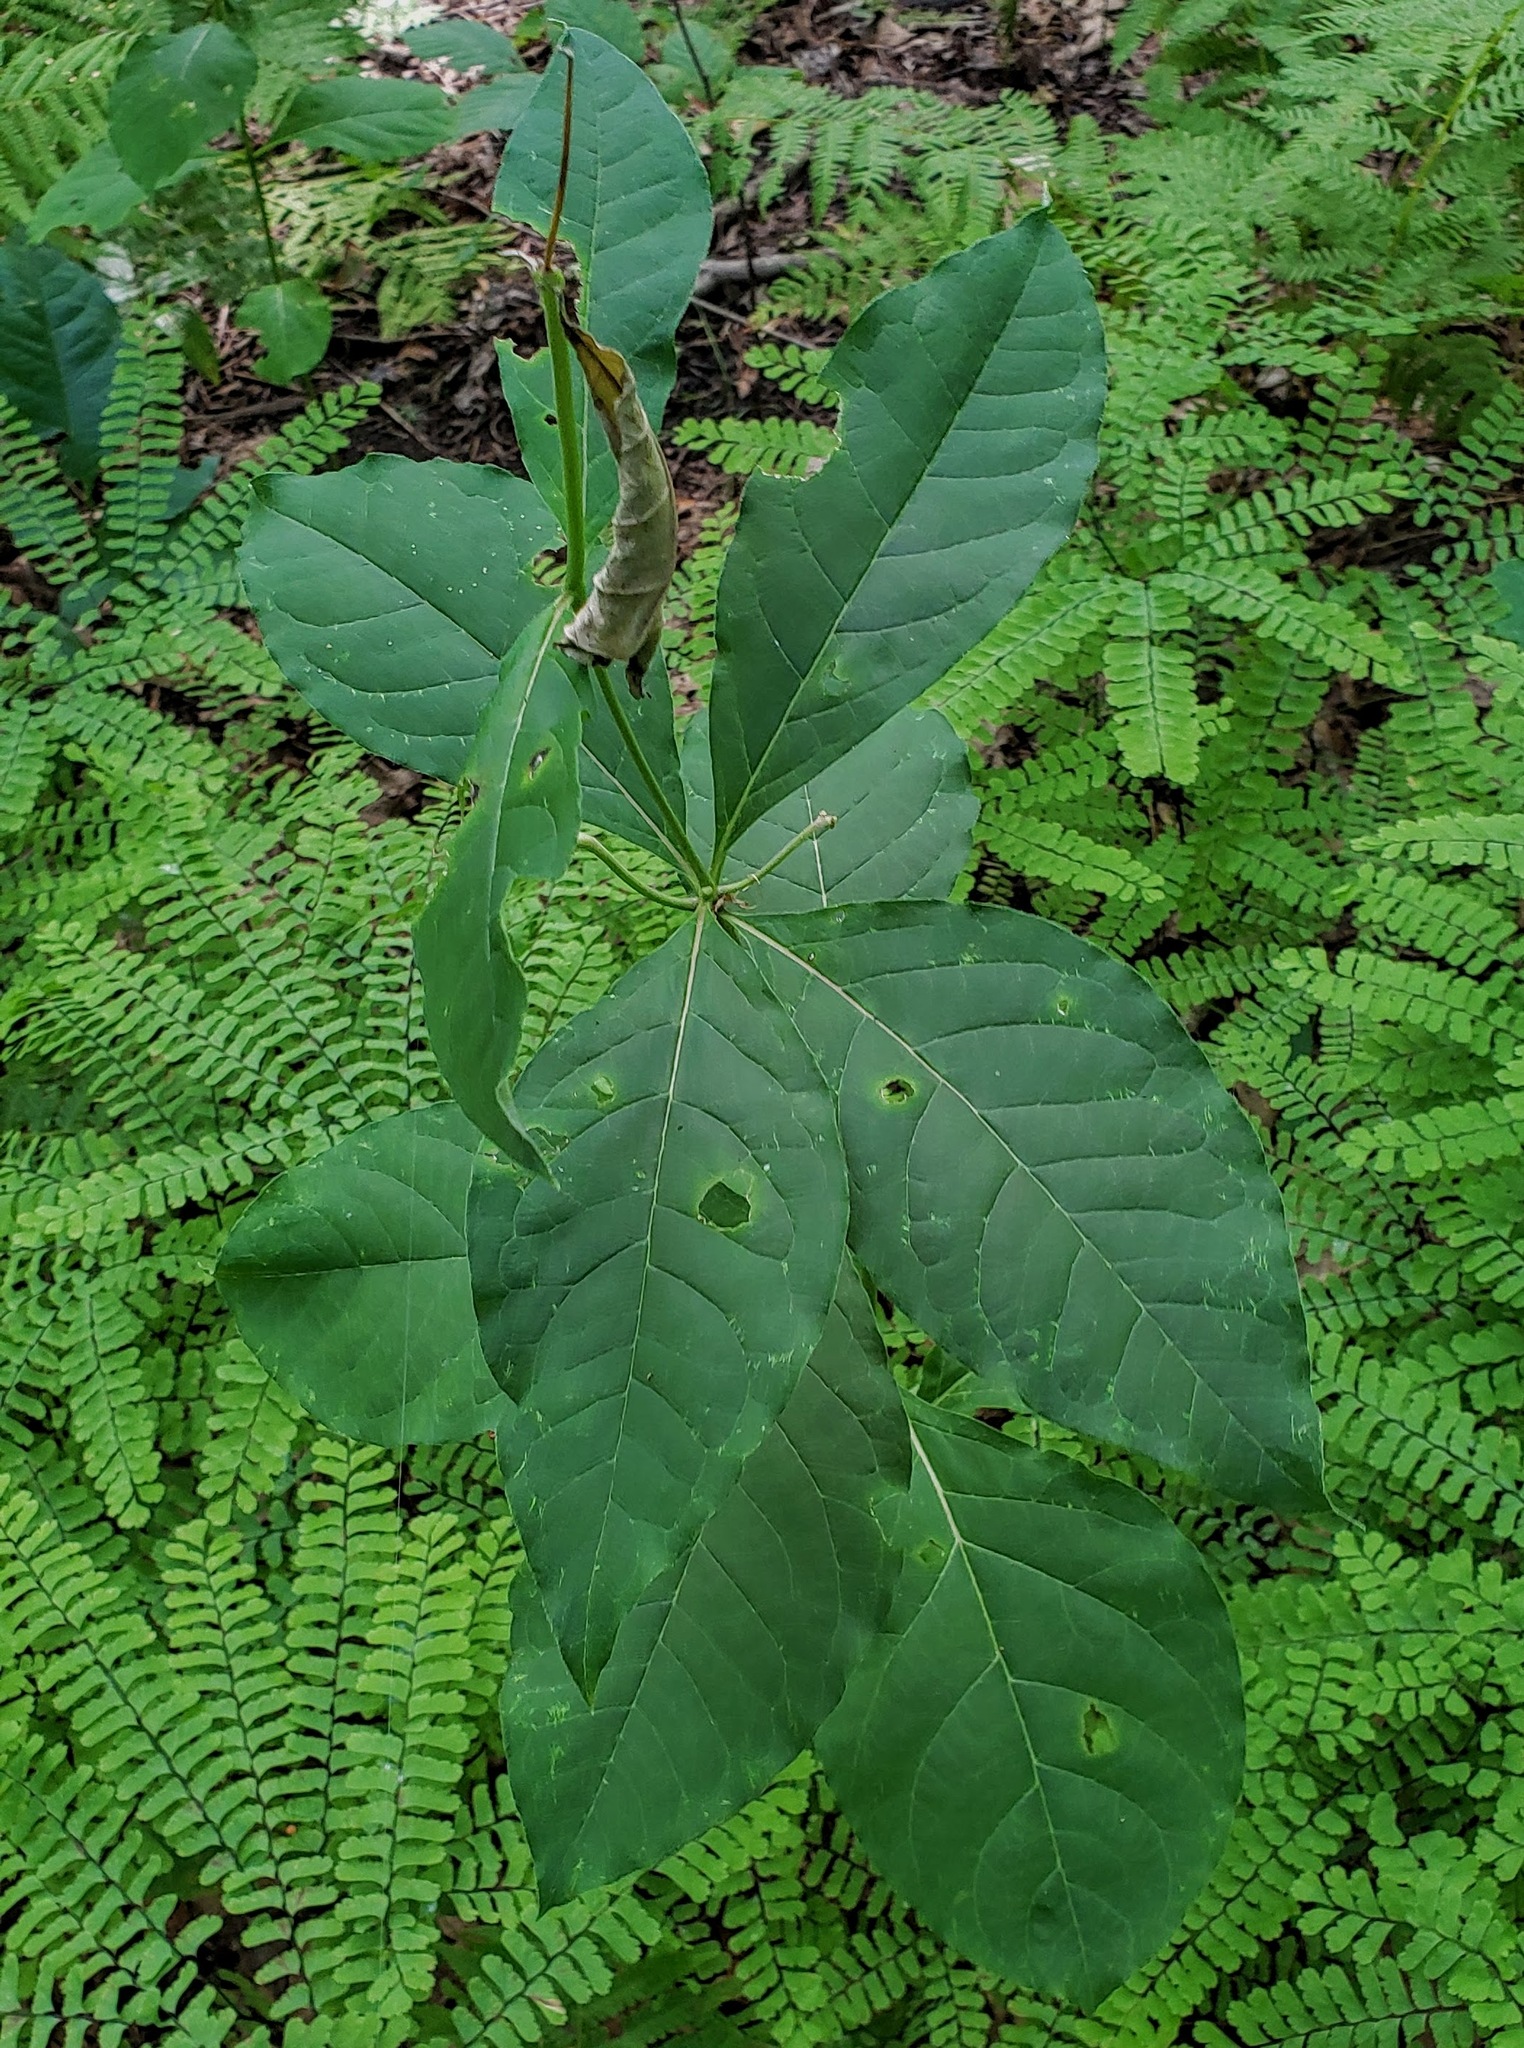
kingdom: Plantae
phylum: Tracheophyta
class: Magnoliopsida
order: Gentianales
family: Apocynaceae
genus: Asclepias
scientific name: Asclepias exaltata
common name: Poke milkweed
